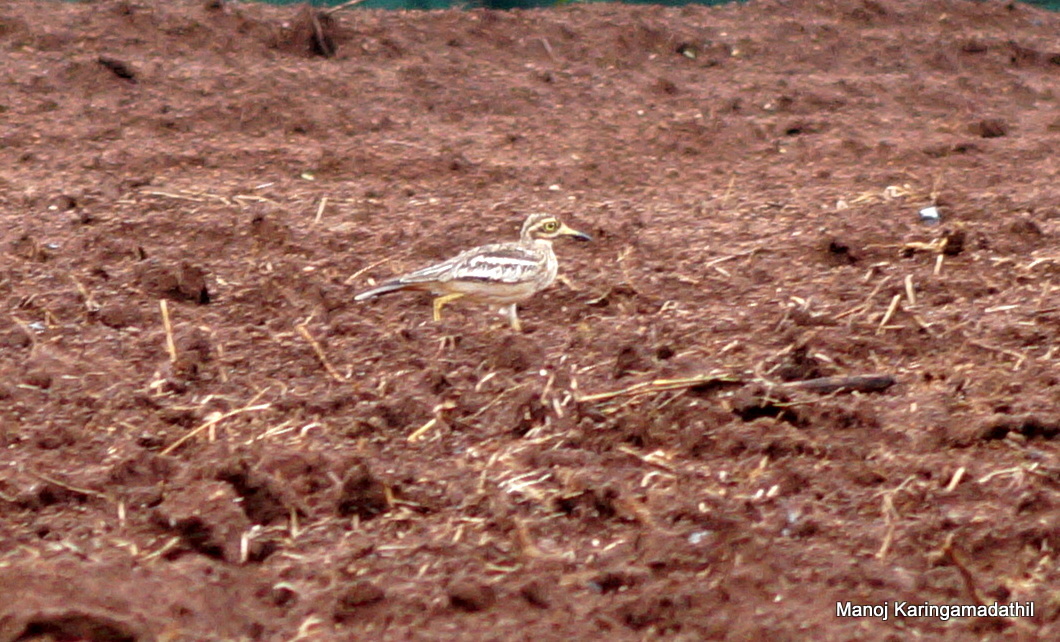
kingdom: Animalia
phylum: Chordata
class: Aves
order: Charadriiformes
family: Burhinidae
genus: Burhinus
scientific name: Burhinus indicus
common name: Indian thick-knee
